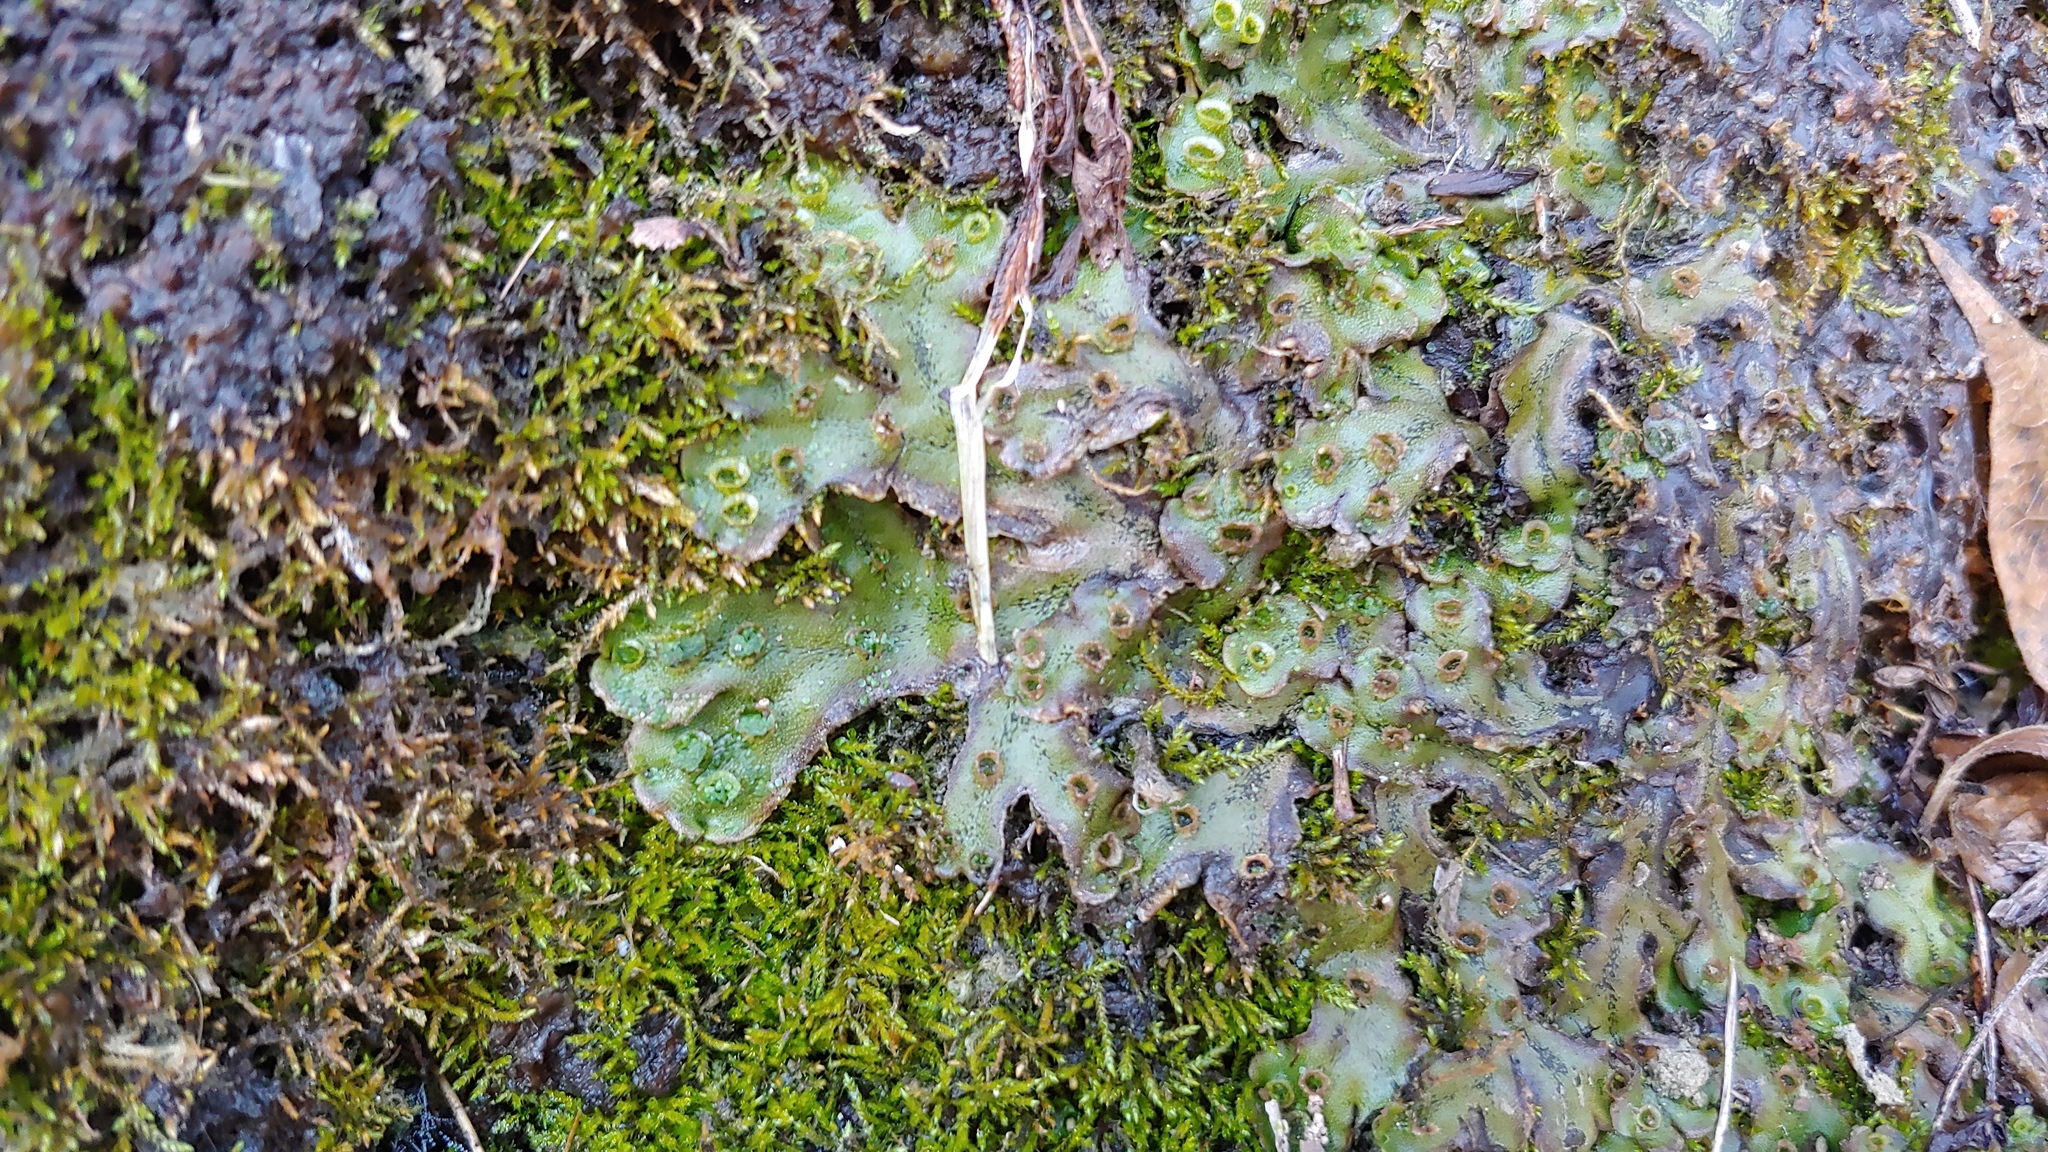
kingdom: Plantae
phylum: Marchantiophyta
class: Marchantiopsida
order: Marchantiales
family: Marchantiaceae
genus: Marchantia
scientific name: Marchantia polymorpha
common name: Common liverwort
